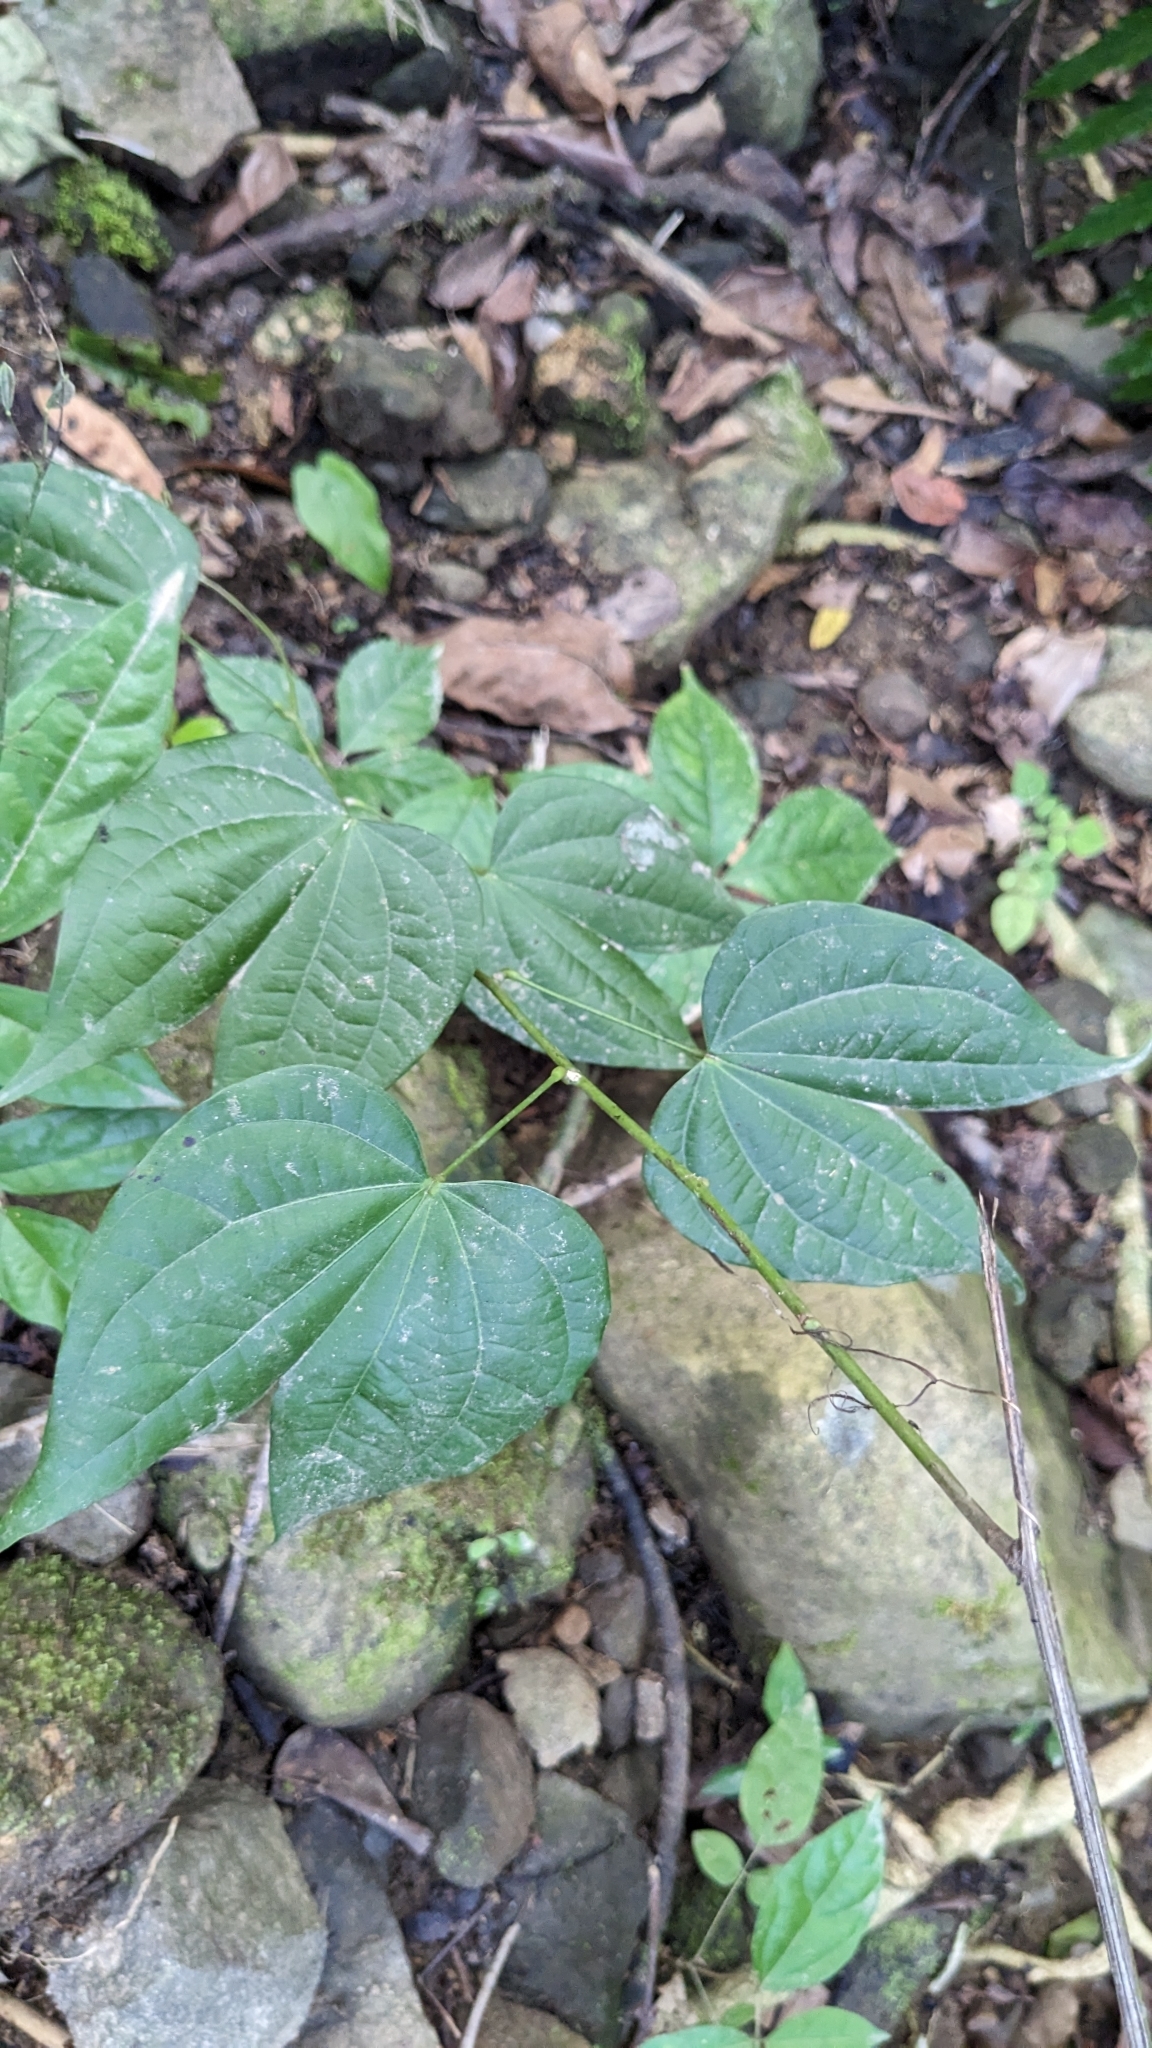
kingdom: Plantae
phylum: Tracheophyta
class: Magnoliopsida
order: Fabales
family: Fabaceae
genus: Phanera
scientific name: Phanera championii
